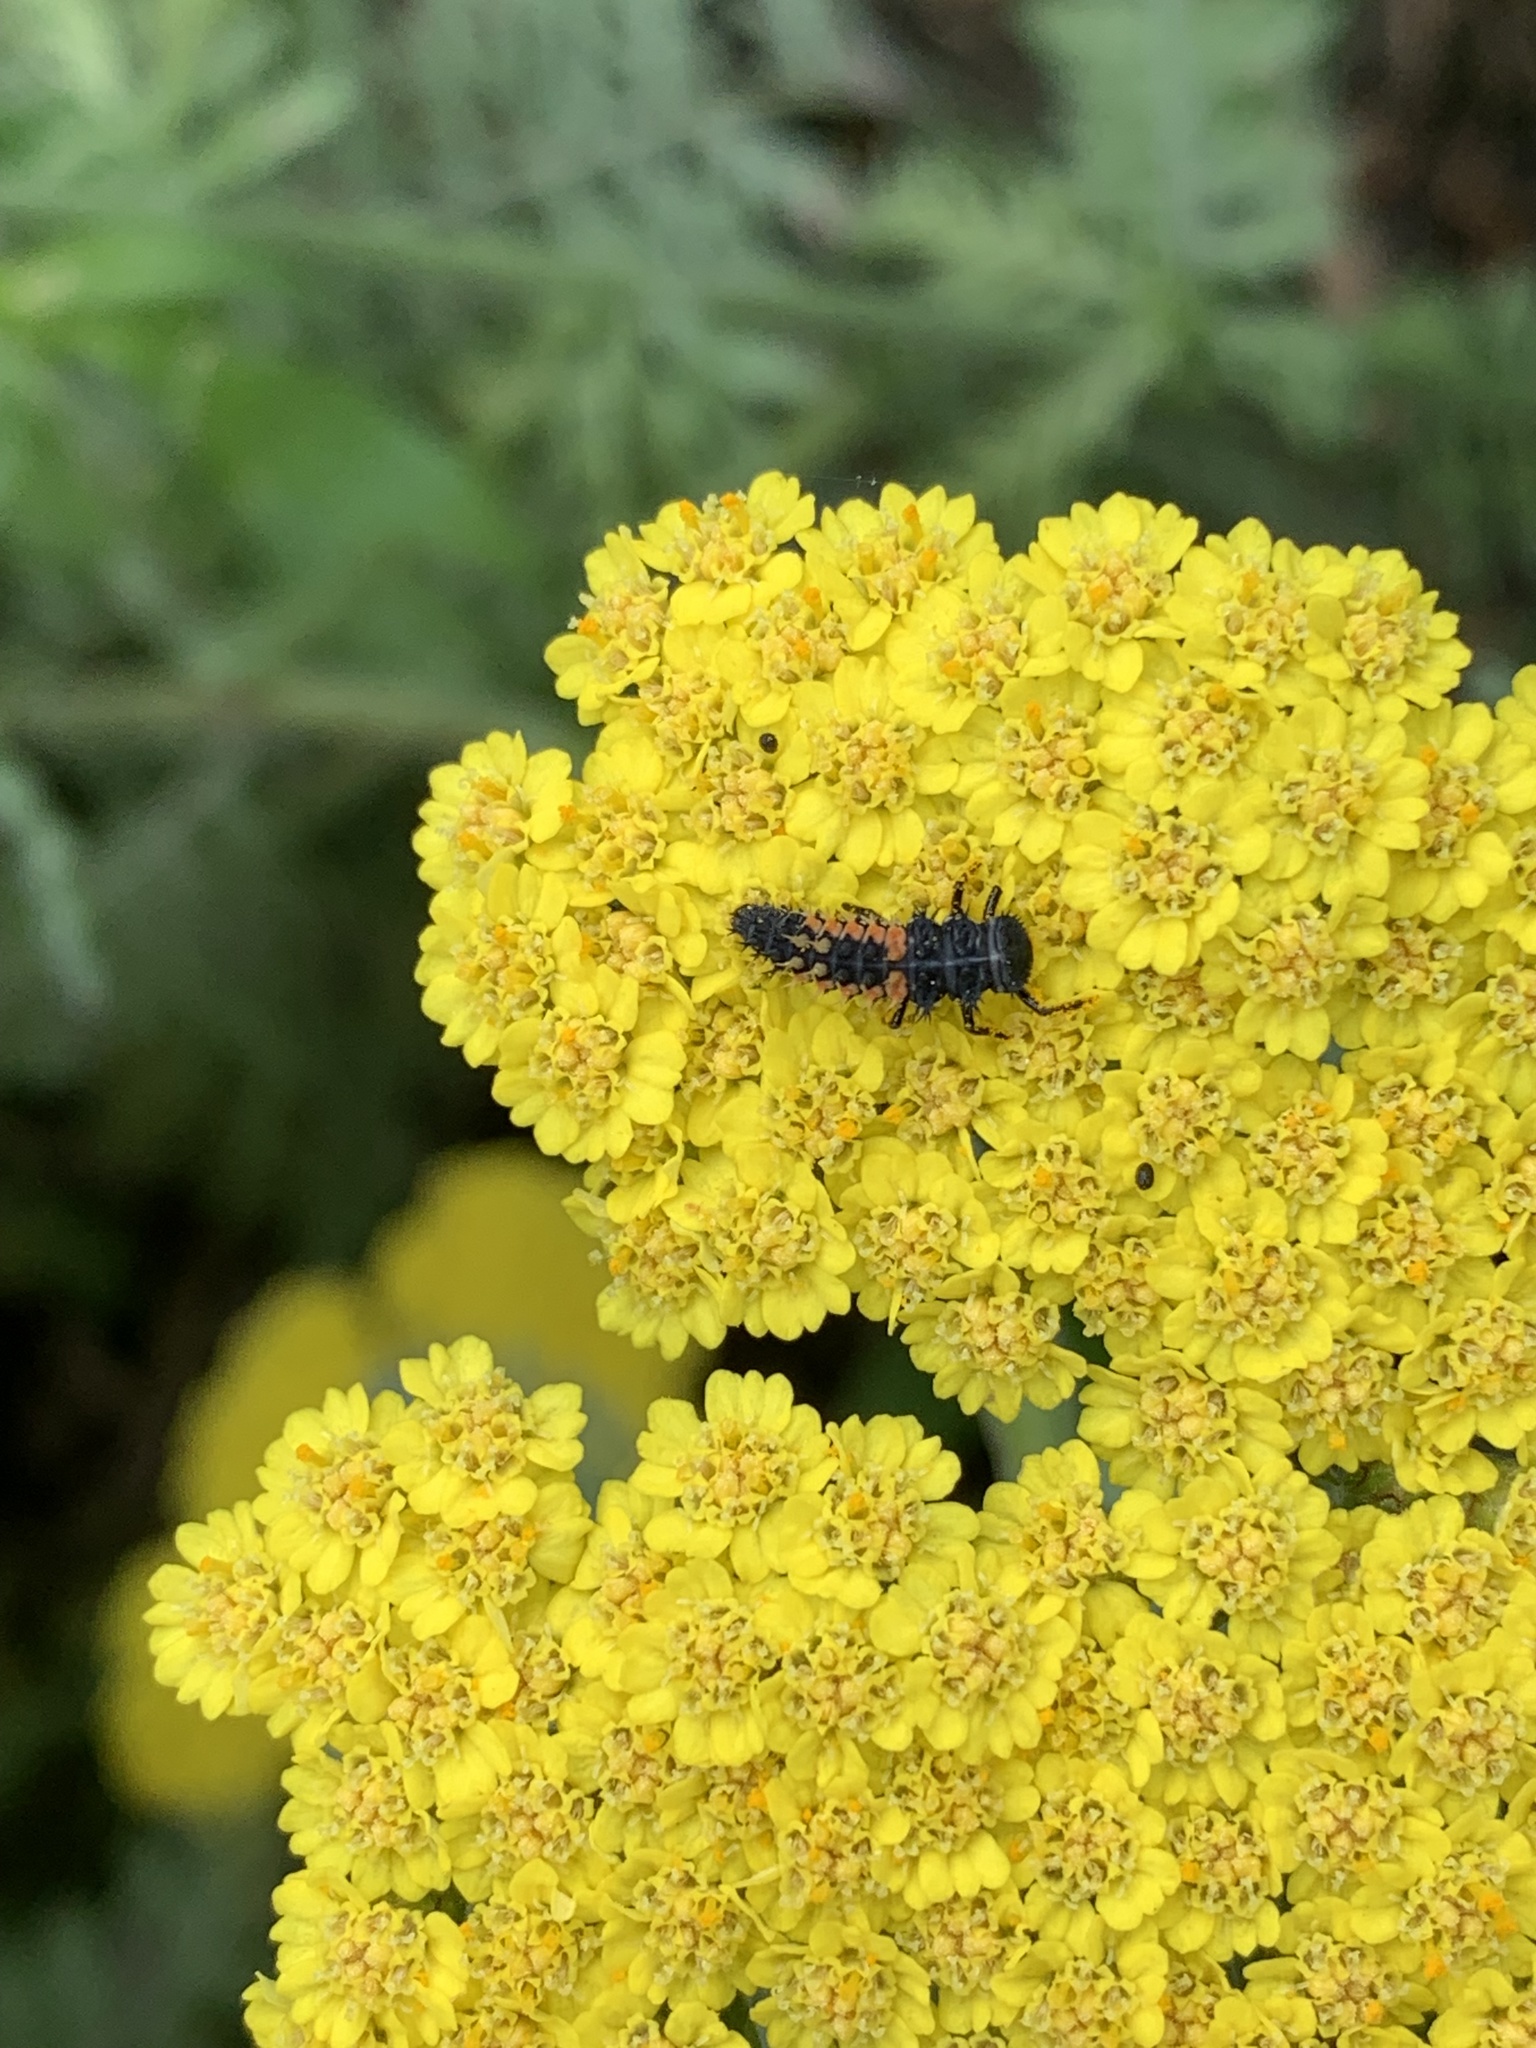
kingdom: Animalia
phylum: Arthropoda
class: Insecta
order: Coleoptera
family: Coccinellidae
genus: Harmonia
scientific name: Harmonia axyridis
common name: Harlequin ladybird
